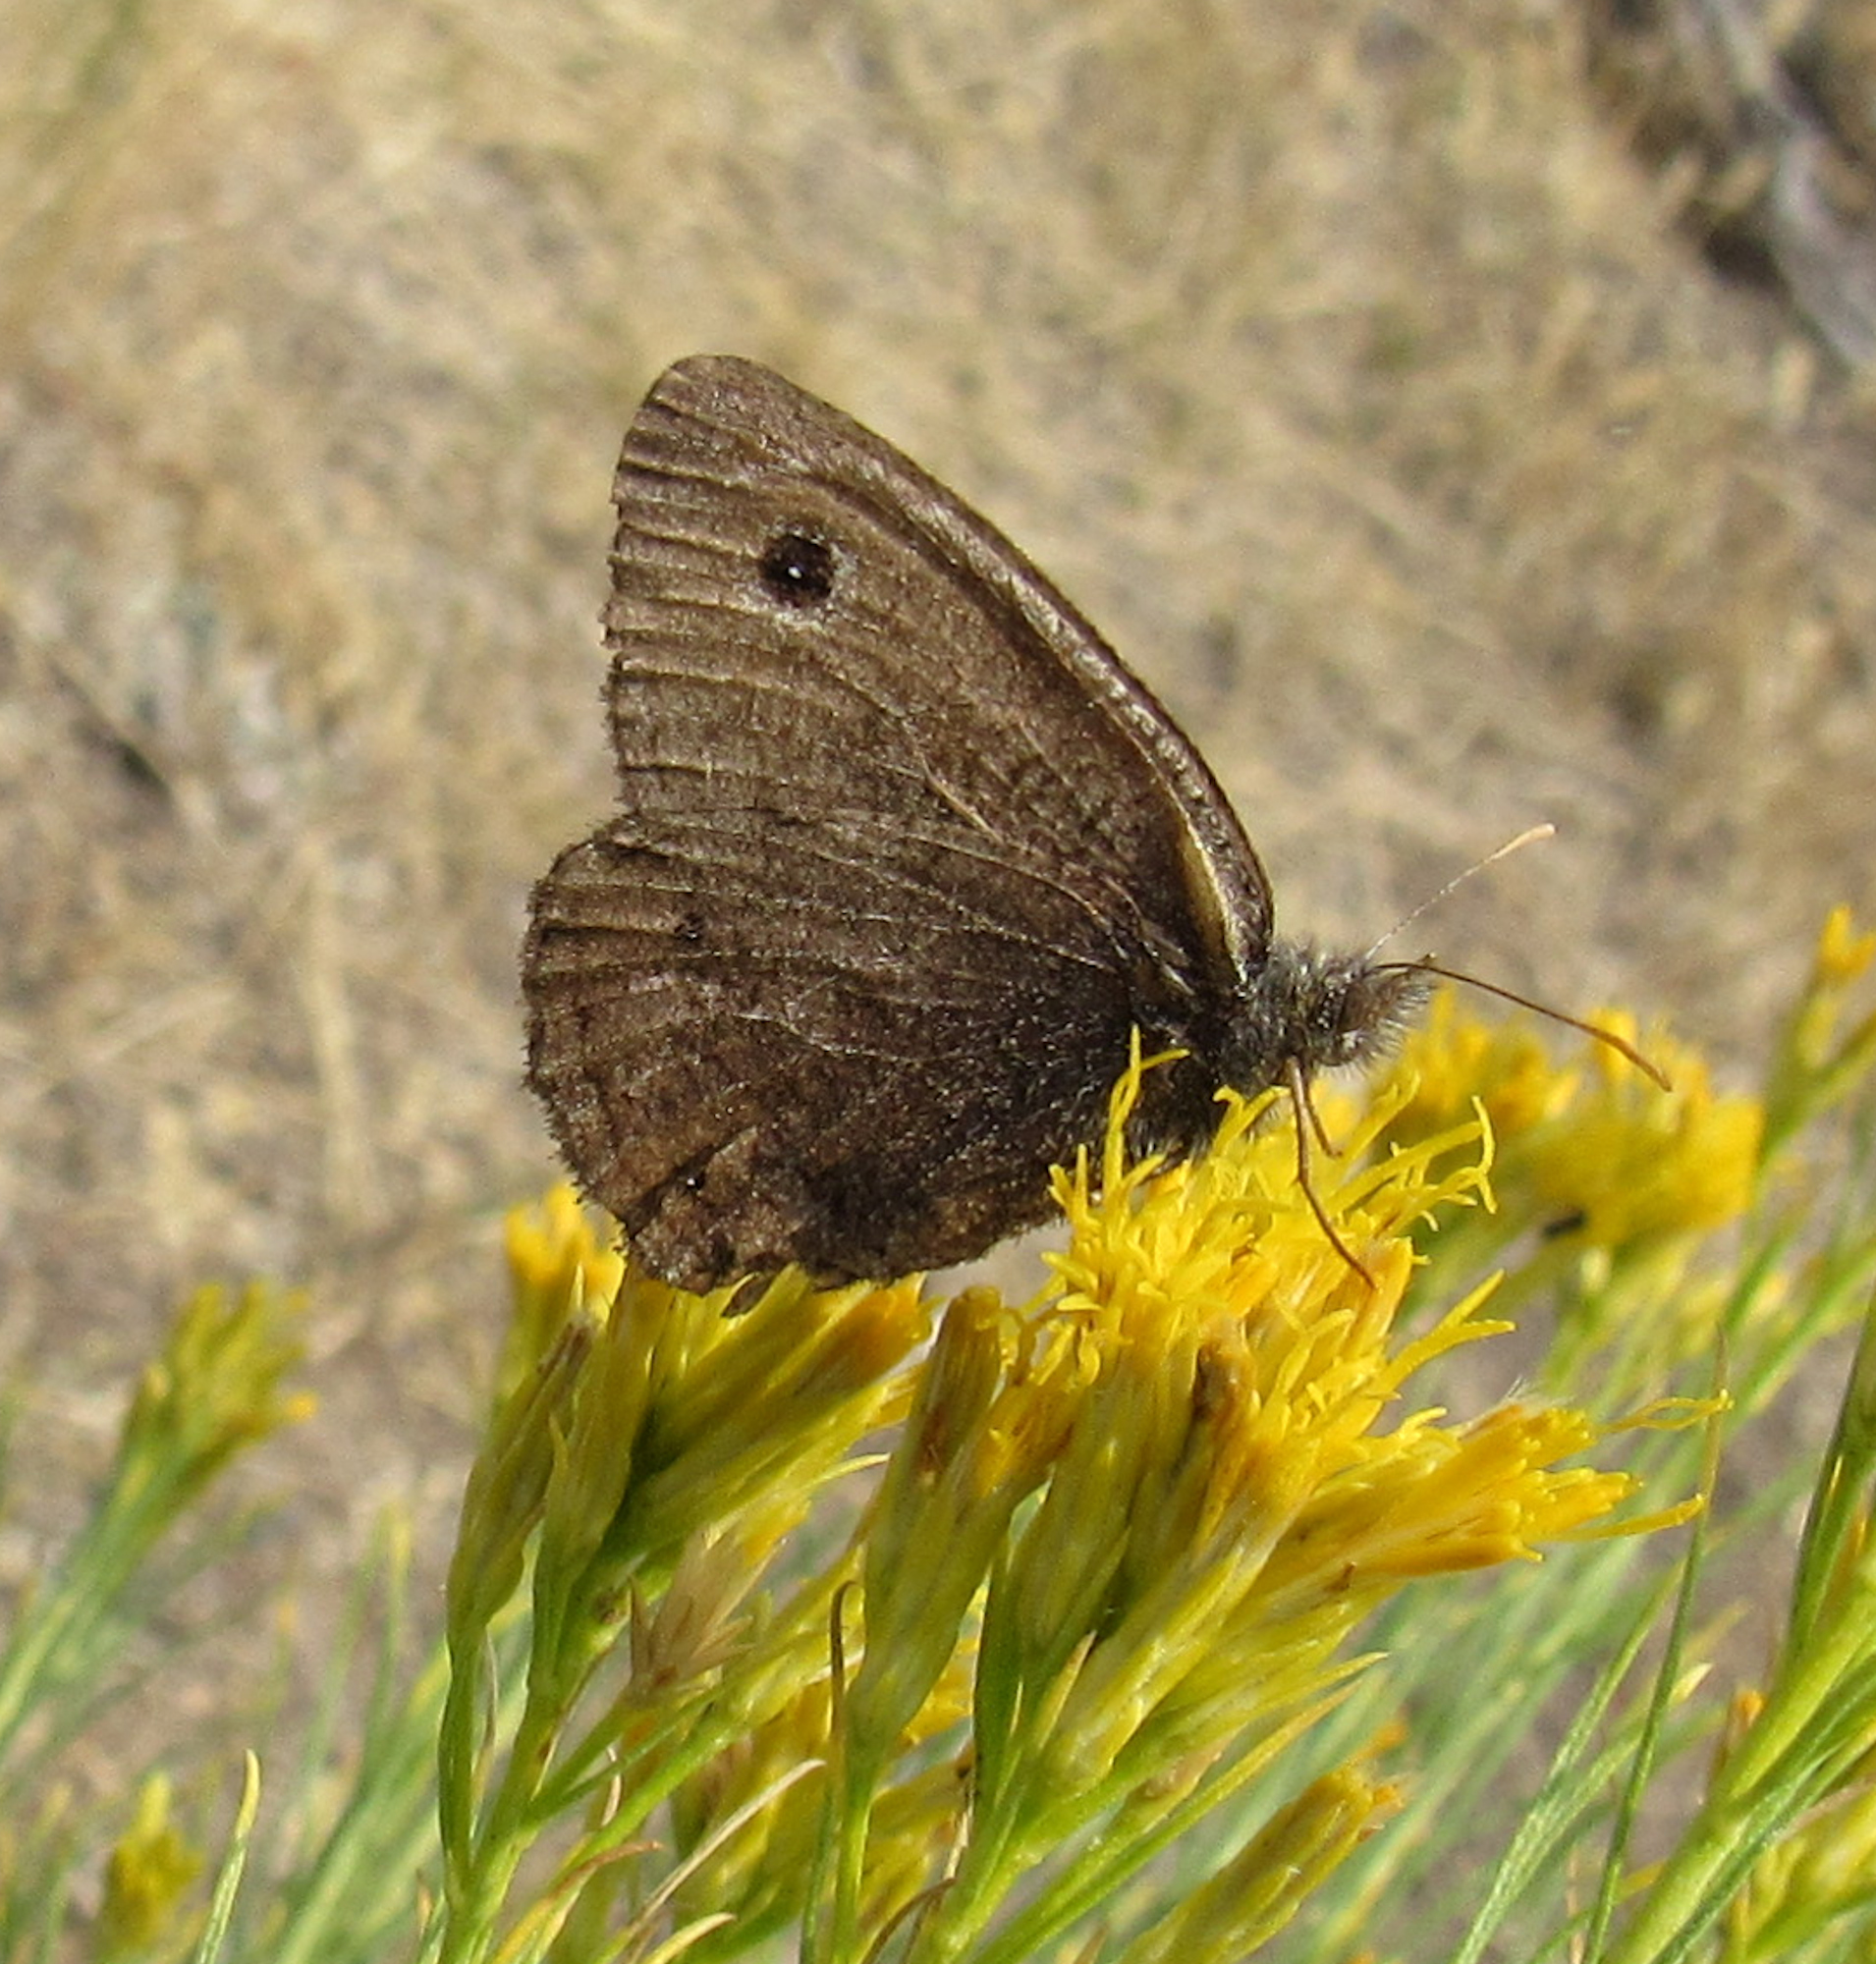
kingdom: Animalia
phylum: Arthropoda
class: Insecta
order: Lepidoptera
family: Nymphalidae
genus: Cercyonis
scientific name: Cercyonis oetus
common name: Small wood-nymph
